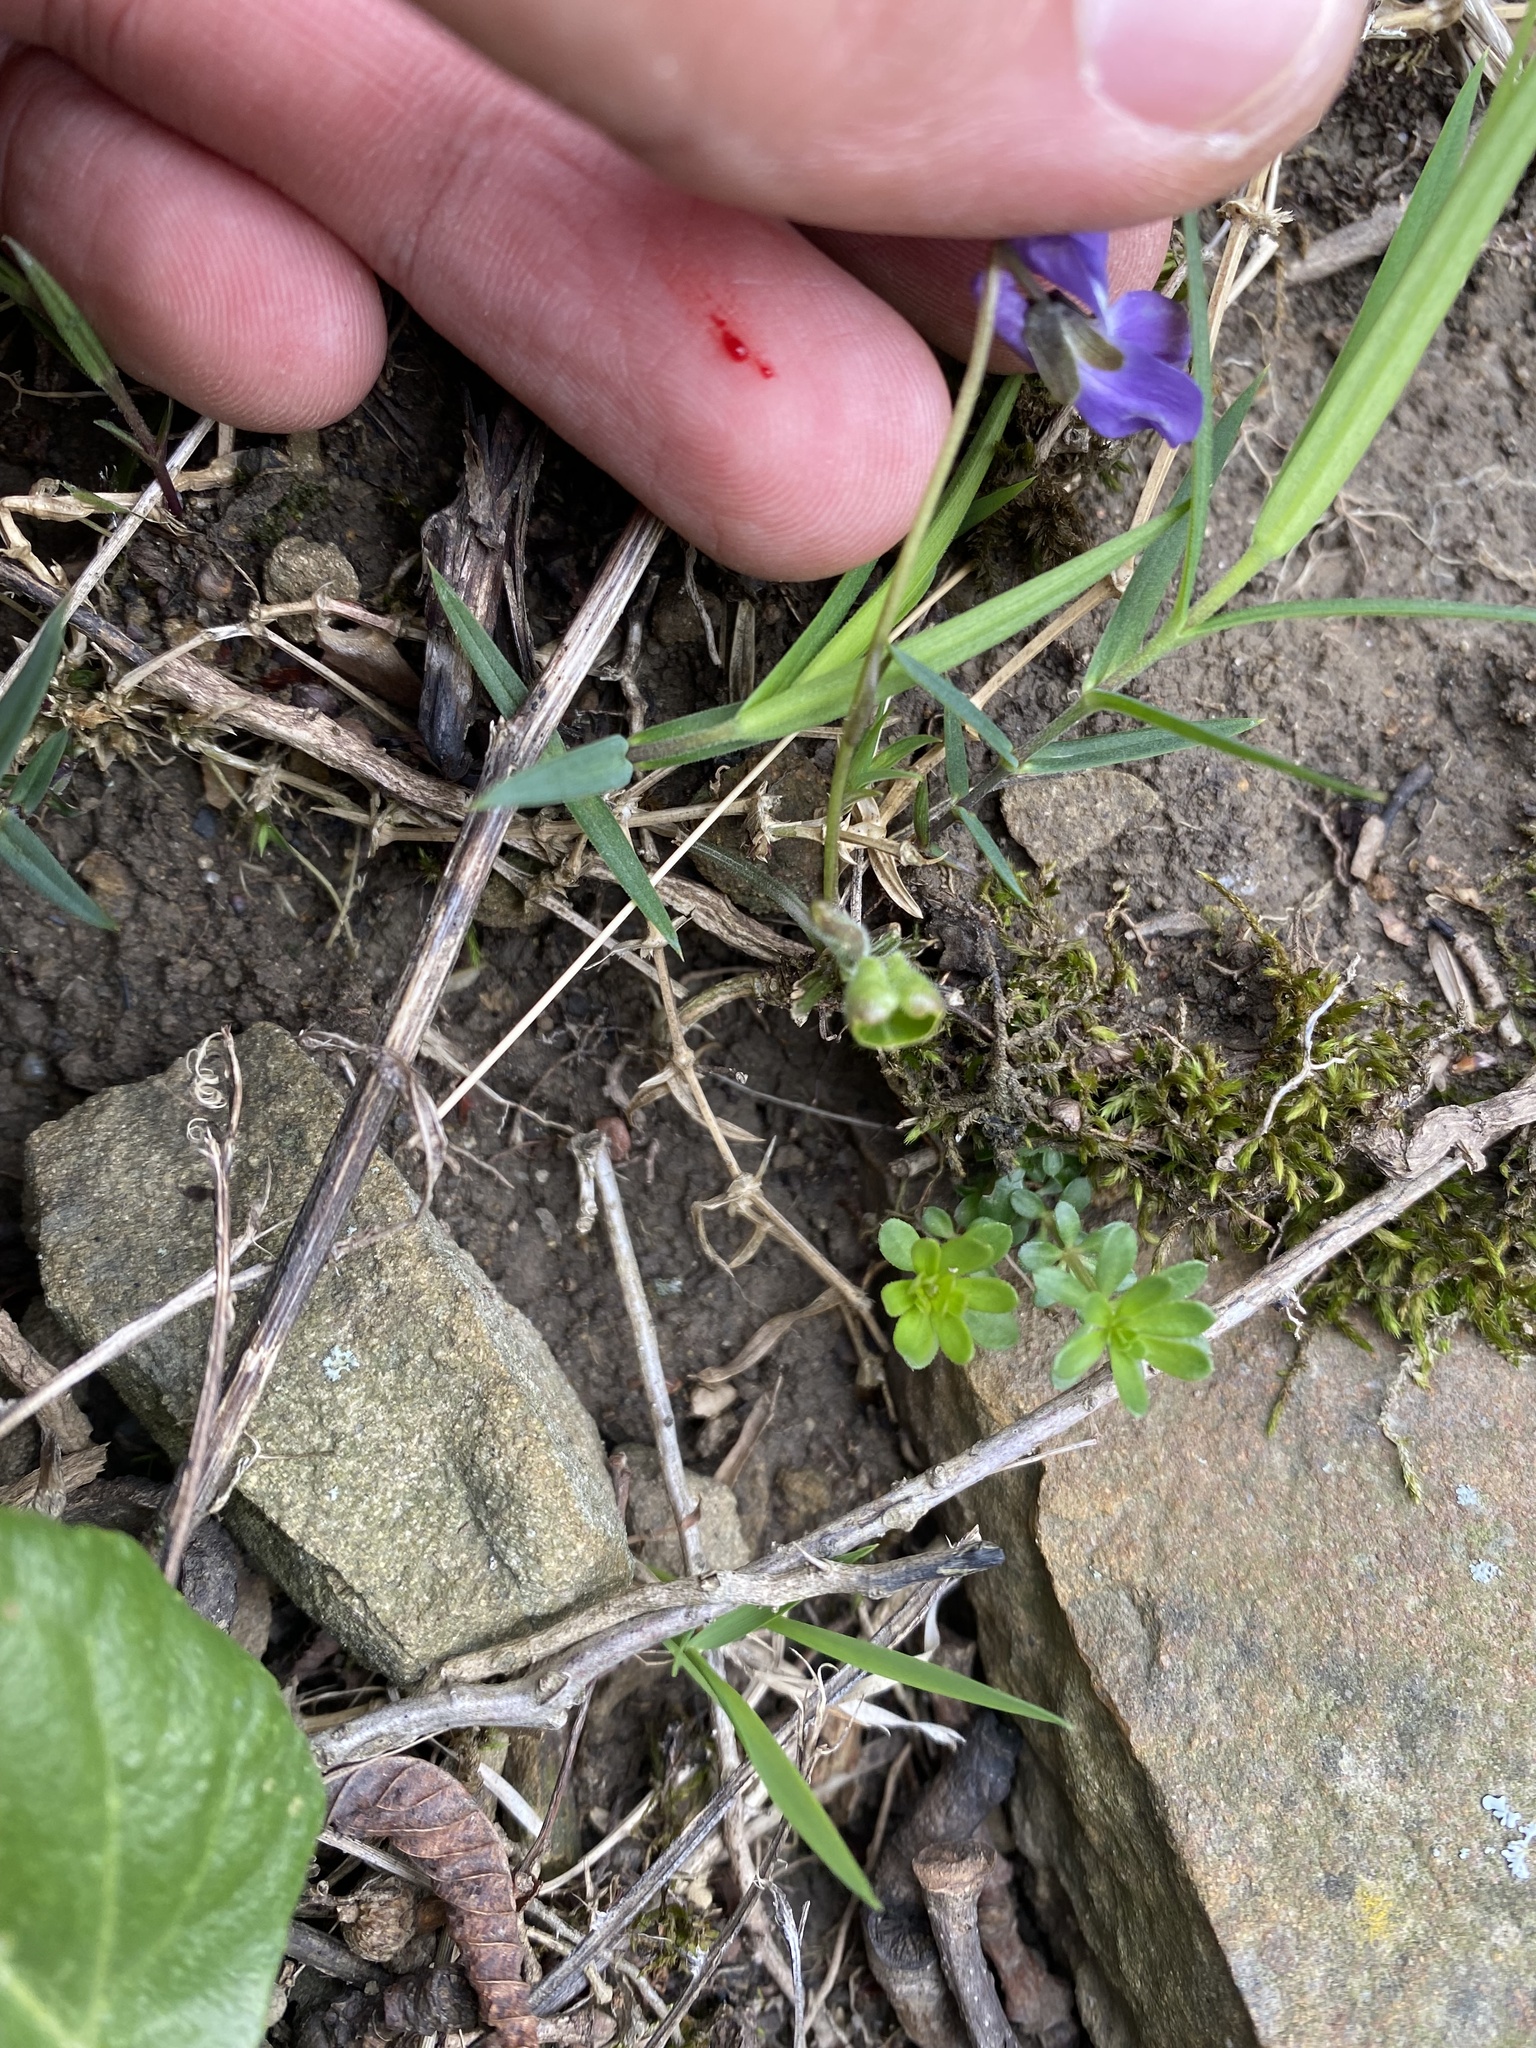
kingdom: Plantae
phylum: Tracheophyta
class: Magnoliopsida
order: Malpighiales
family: Violaceae
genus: Viola
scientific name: Viola alba
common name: White violet
